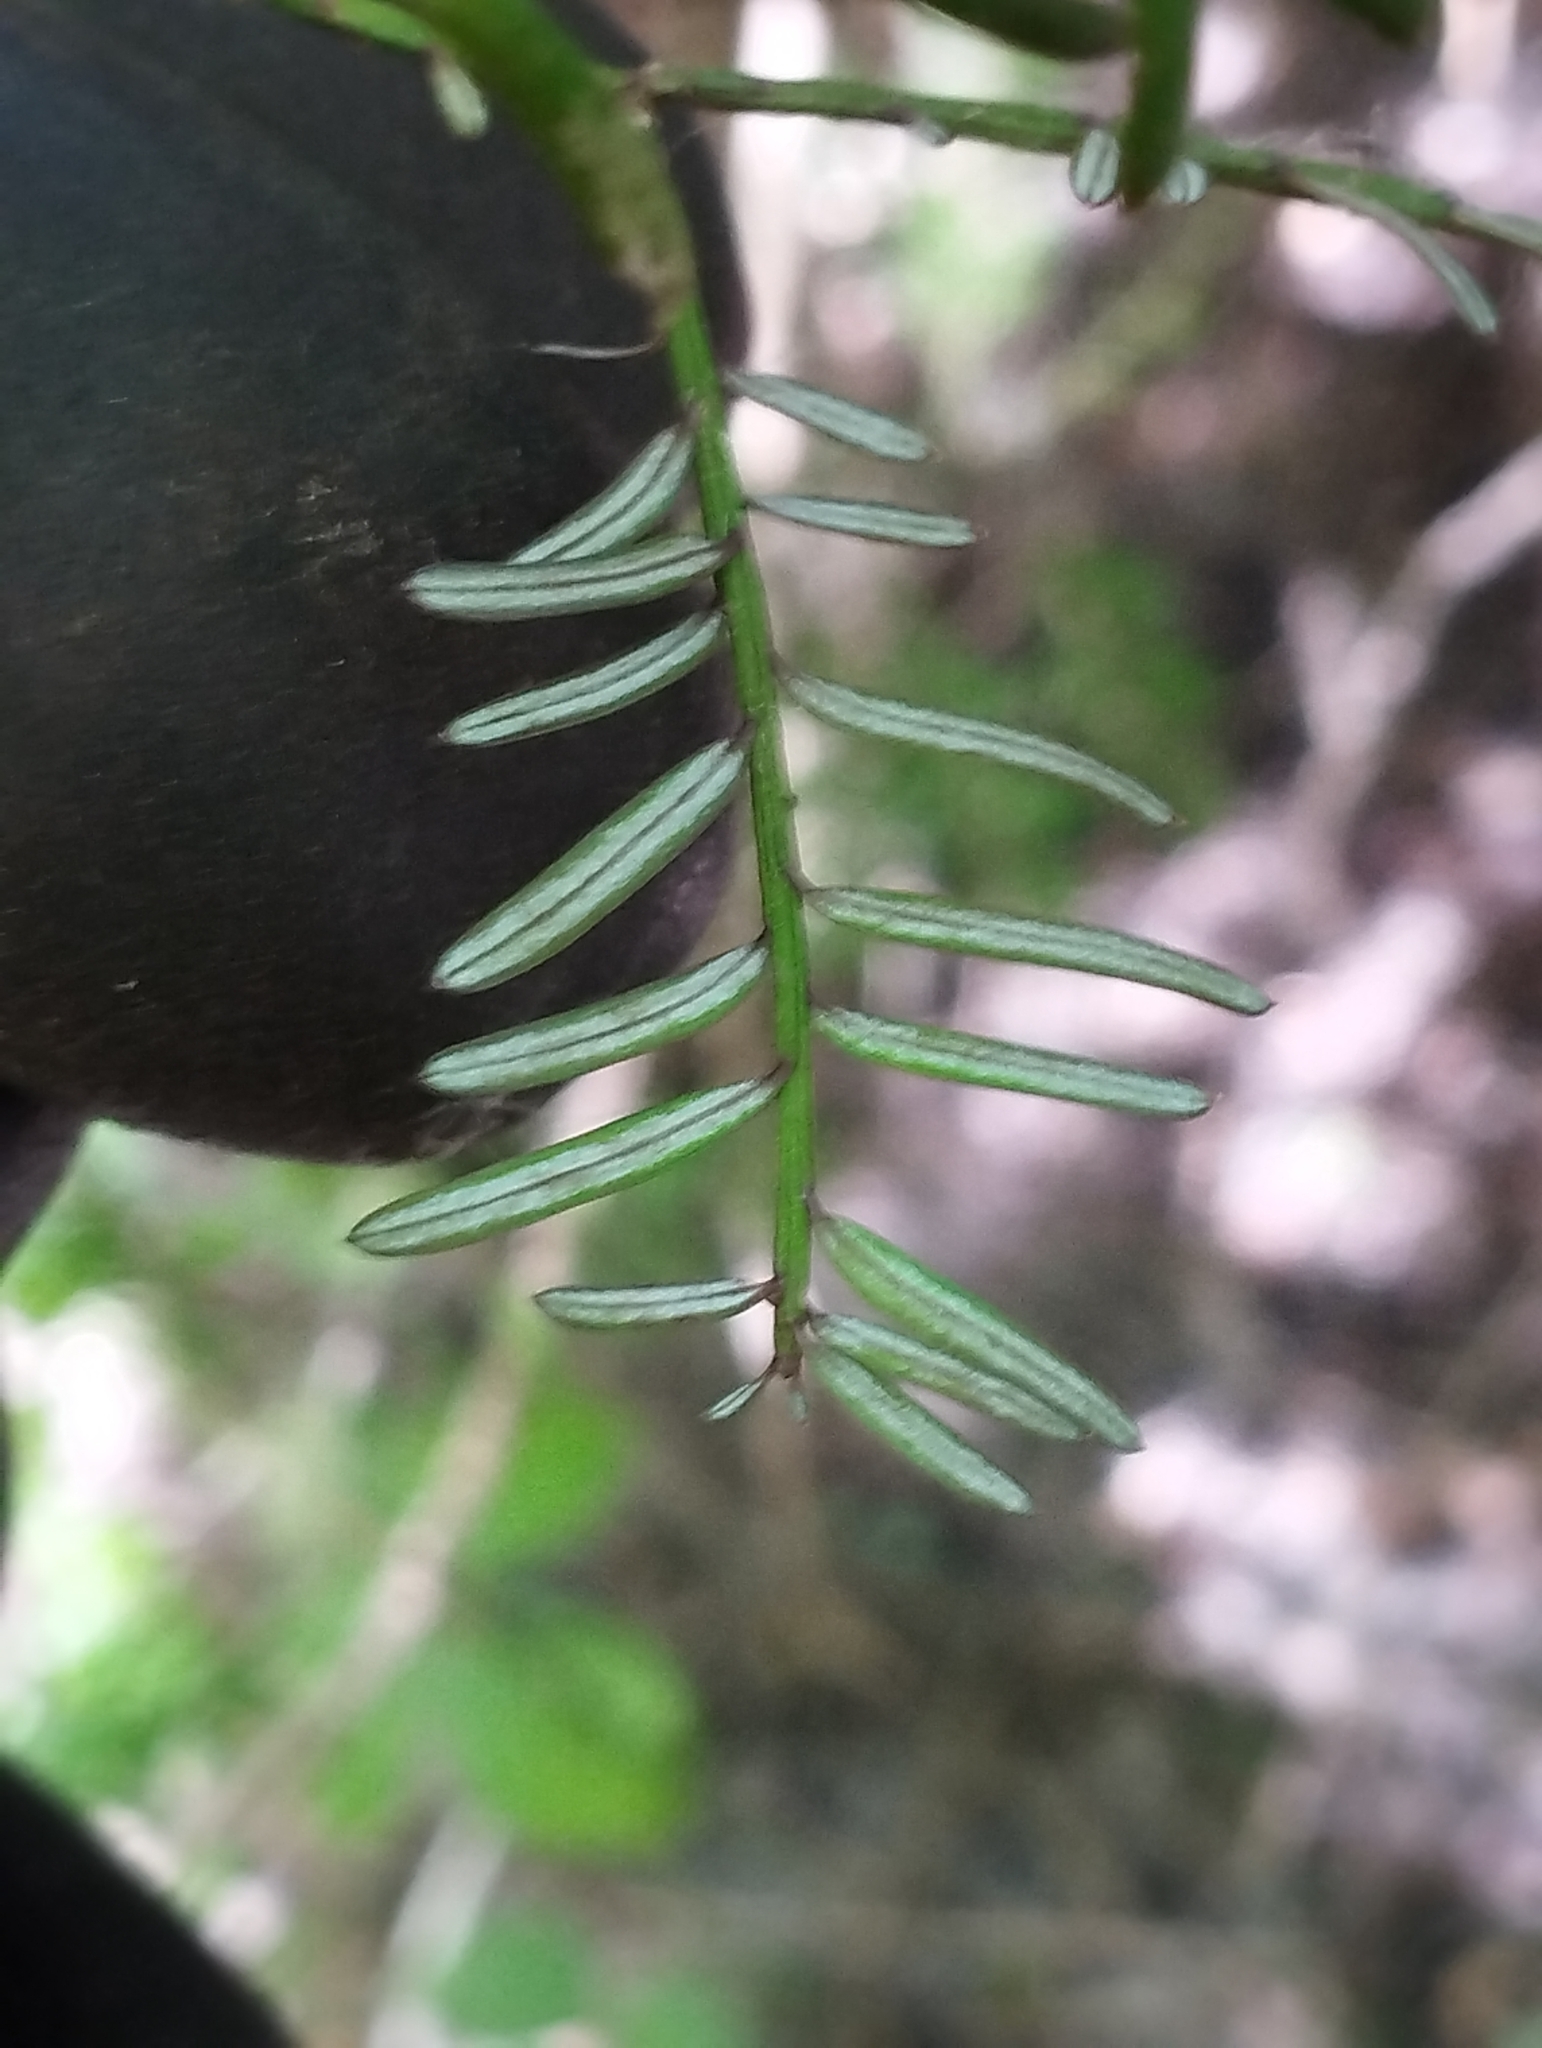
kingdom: Plantae
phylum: Tracheophyta
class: Pinopsida
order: Pinales
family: Podocarpaceae
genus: Prumnopitys
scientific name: Prumnopitys taxifolia
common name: Matai
